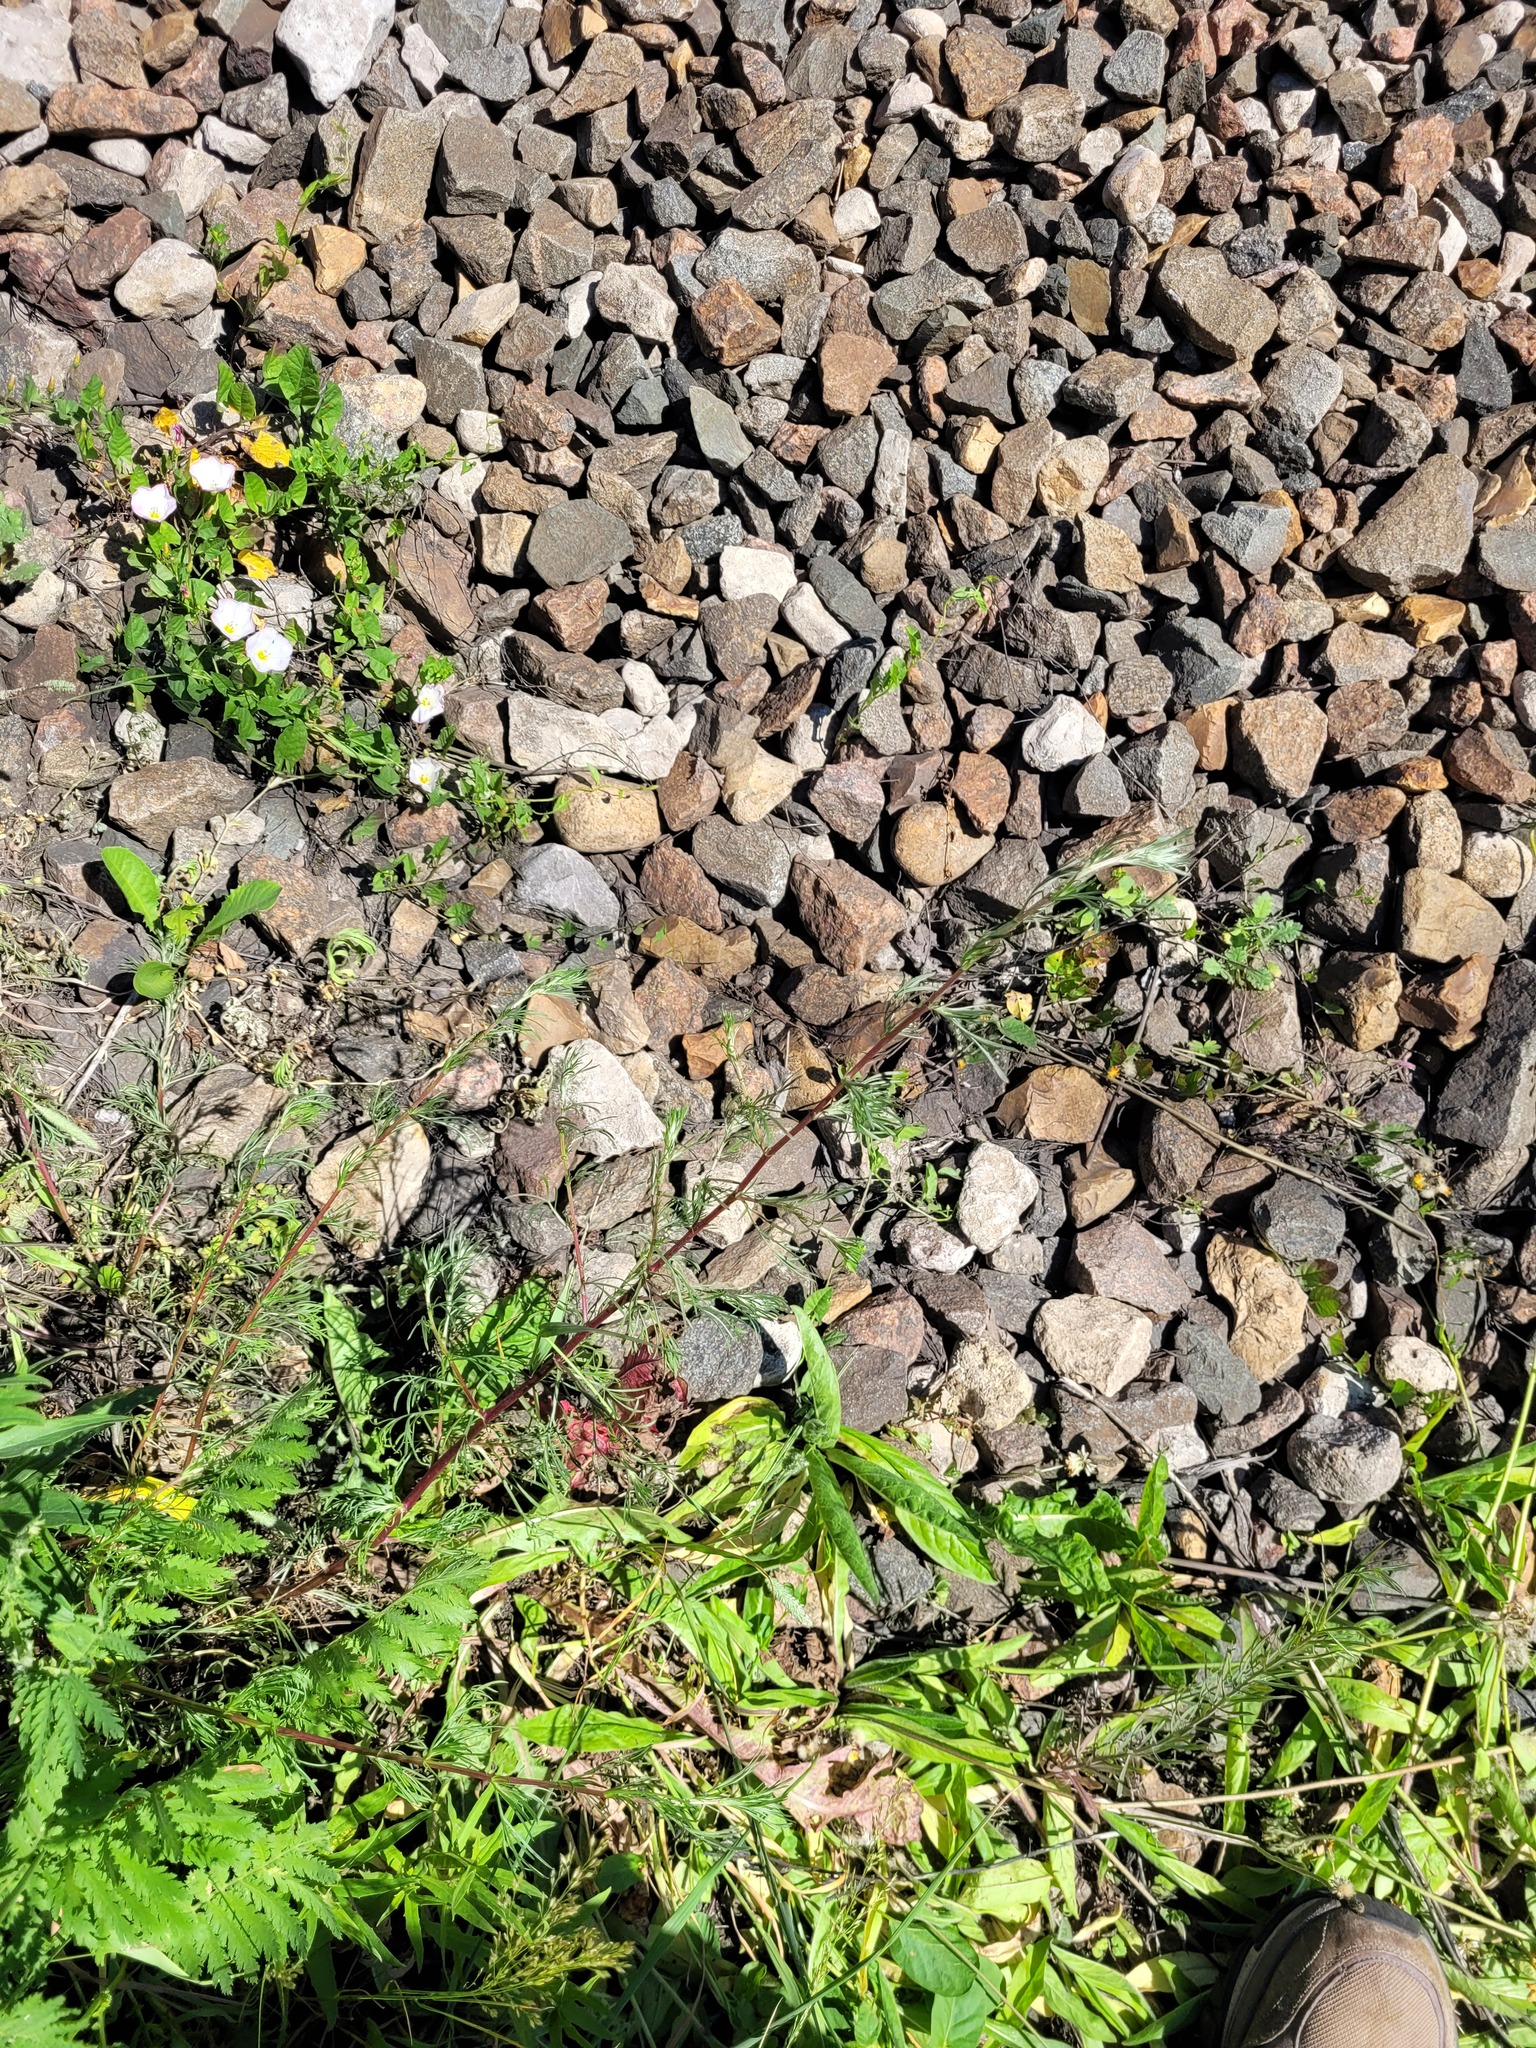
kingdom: Plantae
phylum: Tracheophyta
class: Magnoliopsida
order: Asterales
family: Asteraceae
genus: Artemisia
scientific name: Artemisia campestris
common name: Field wormwood
